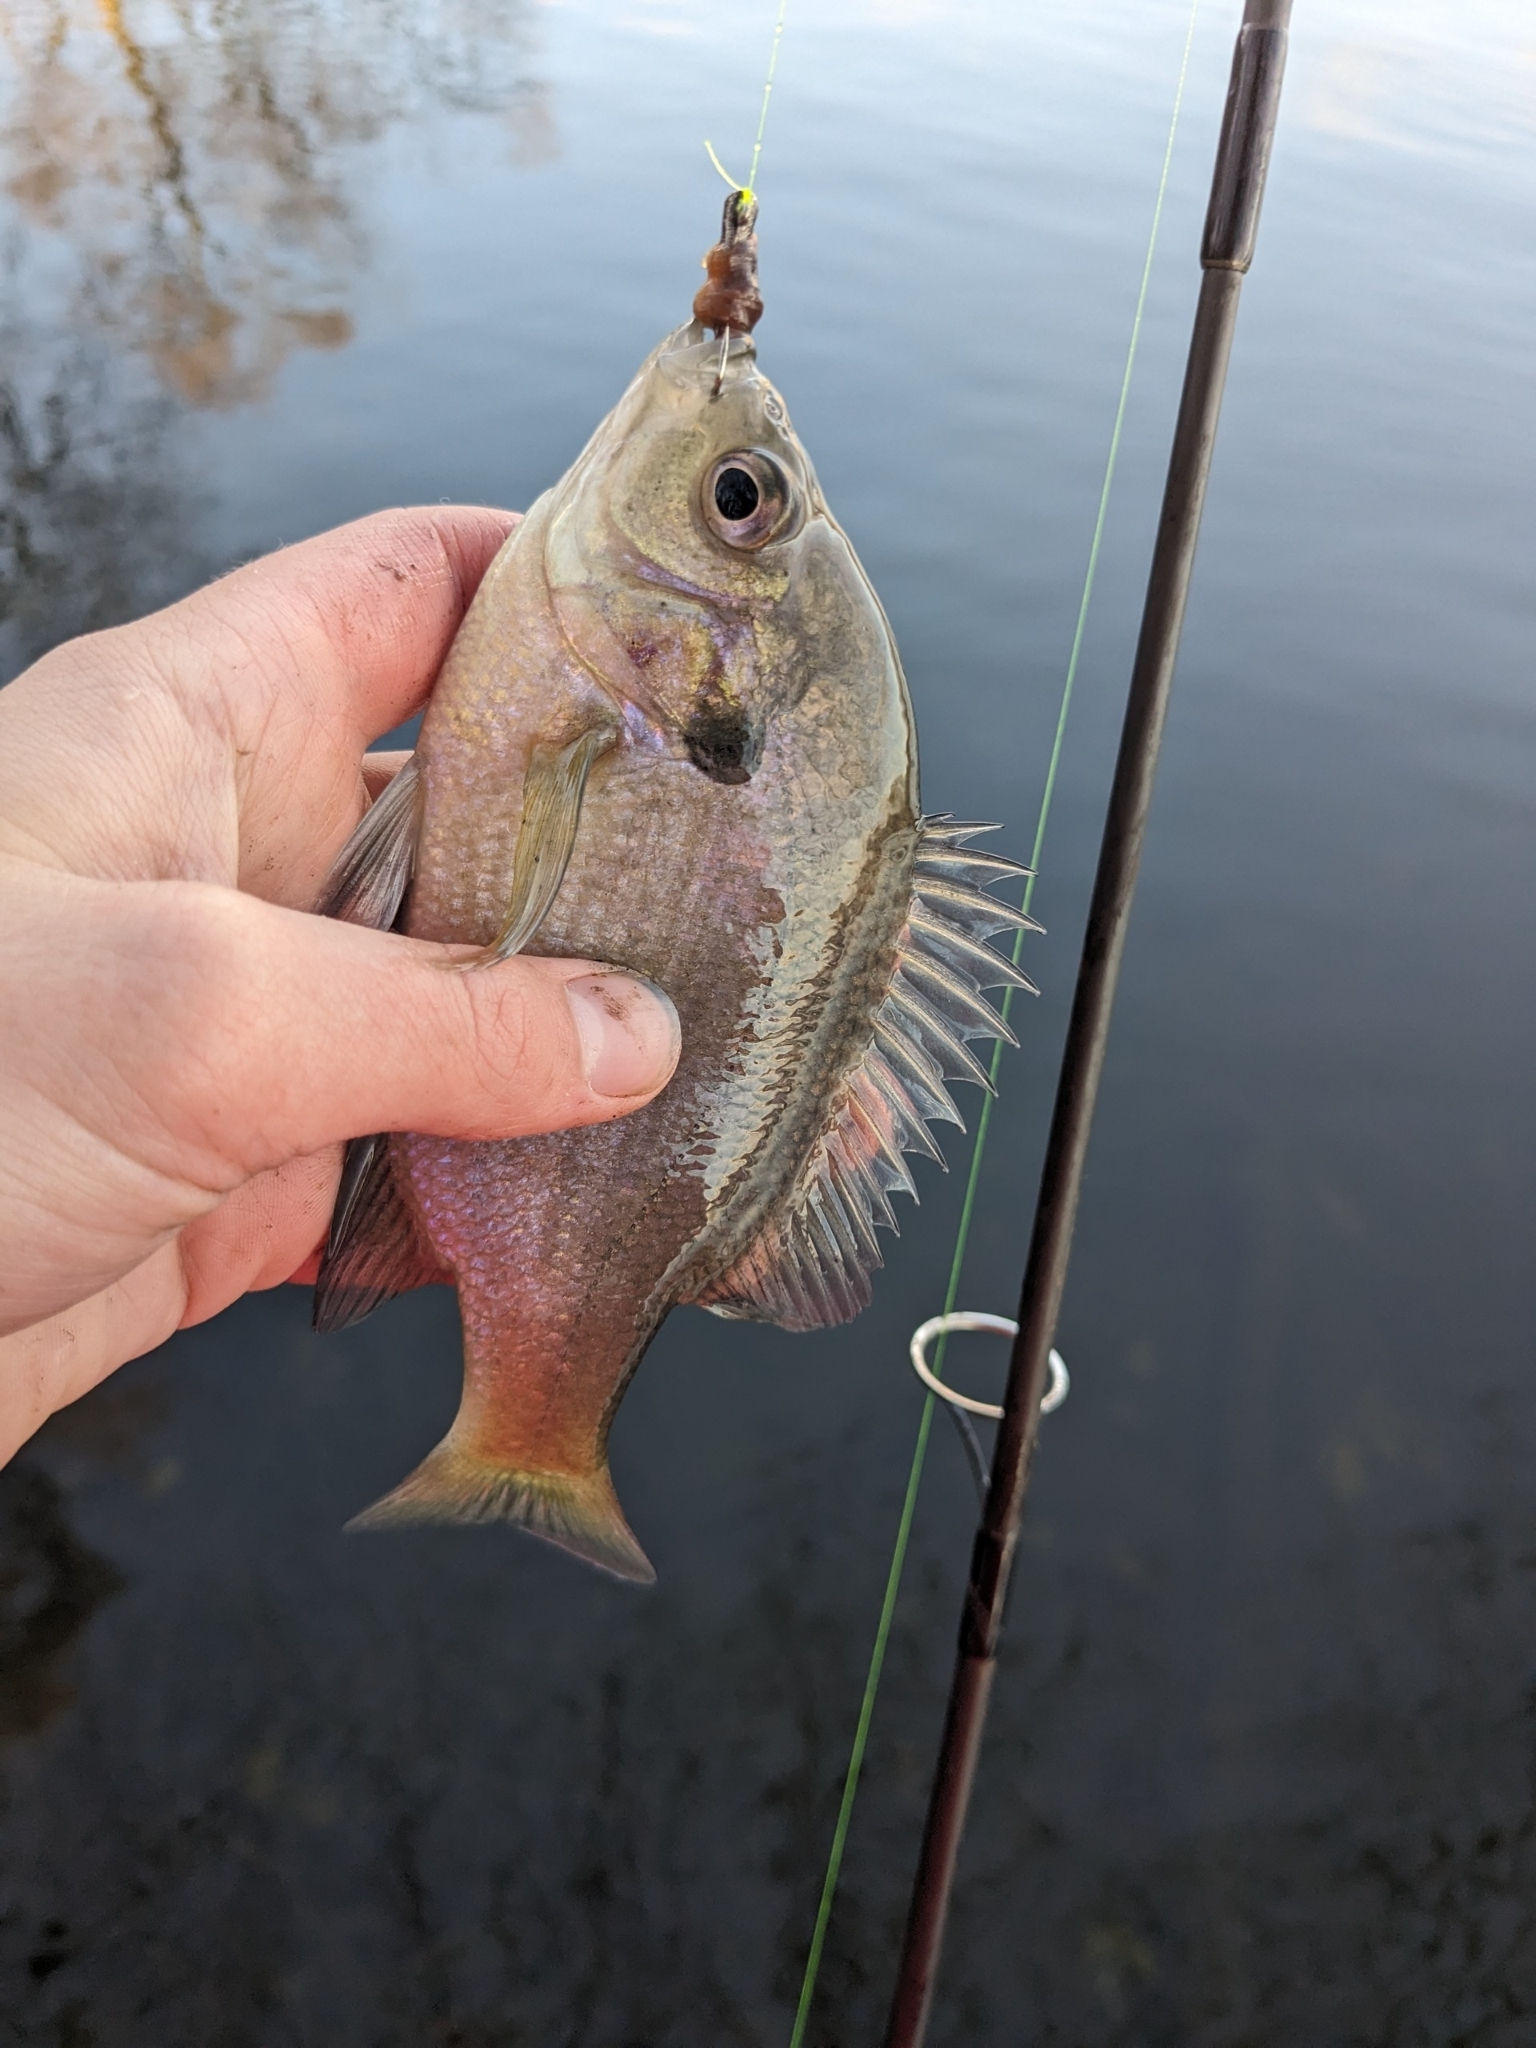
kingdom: Animalia
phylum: Chordata
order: Perciformes
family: Centrarchidae
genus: Lepomis
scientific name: Lepomis macrochirus
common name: Bluegill
